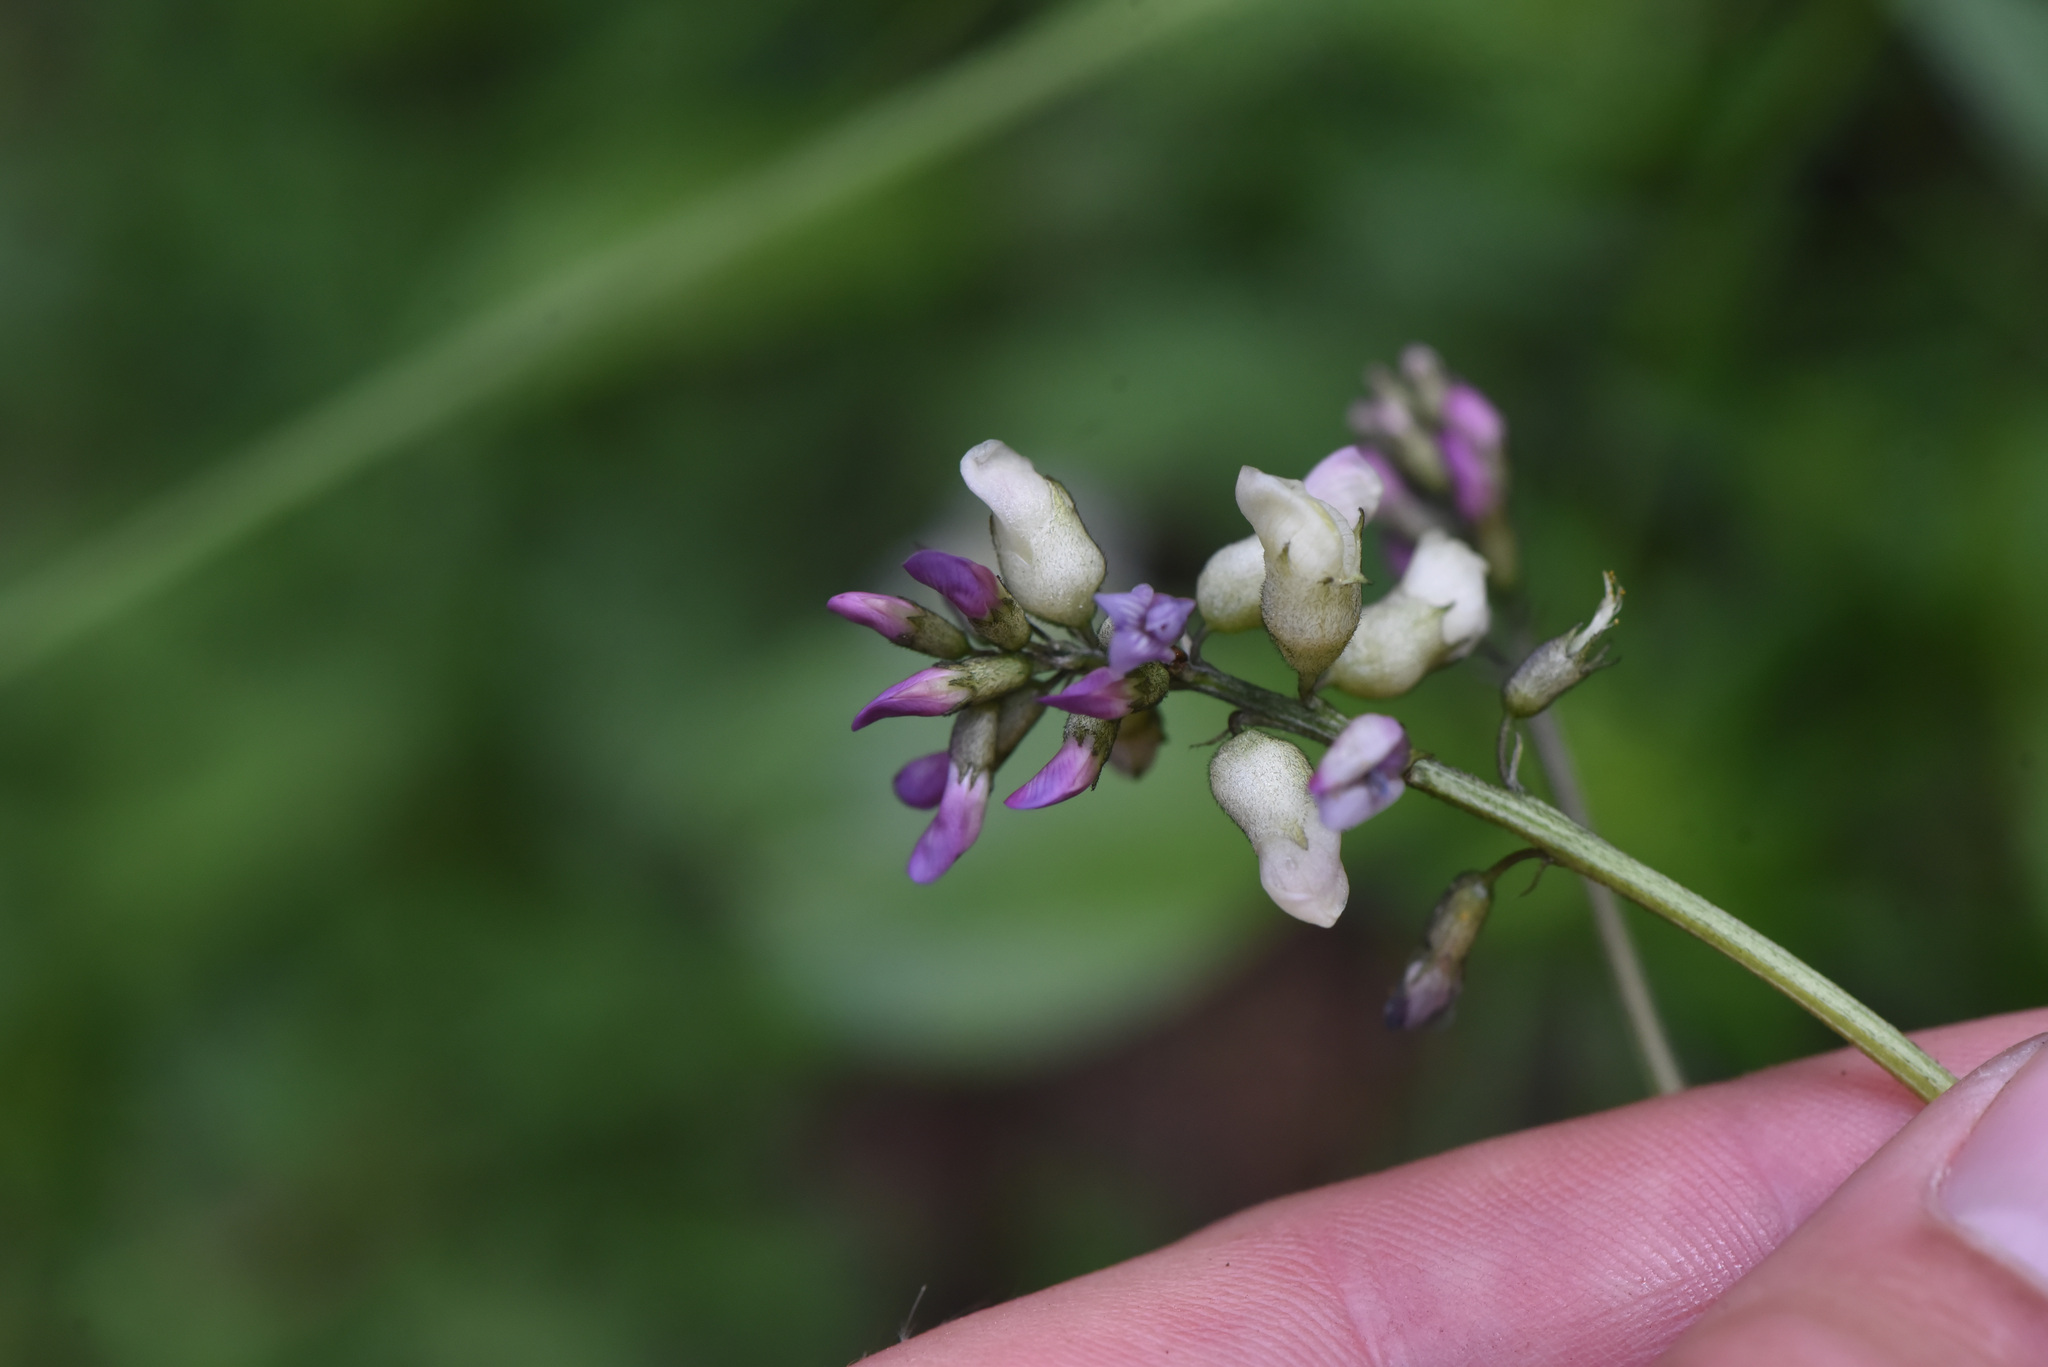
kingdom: Plantae
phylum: Tracheophyta
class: Magnoliopsida
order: Fabales
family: Fabaceae
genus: Astragalus
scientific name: Astragalus robbinsii
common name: Robbins' milk-vetch
